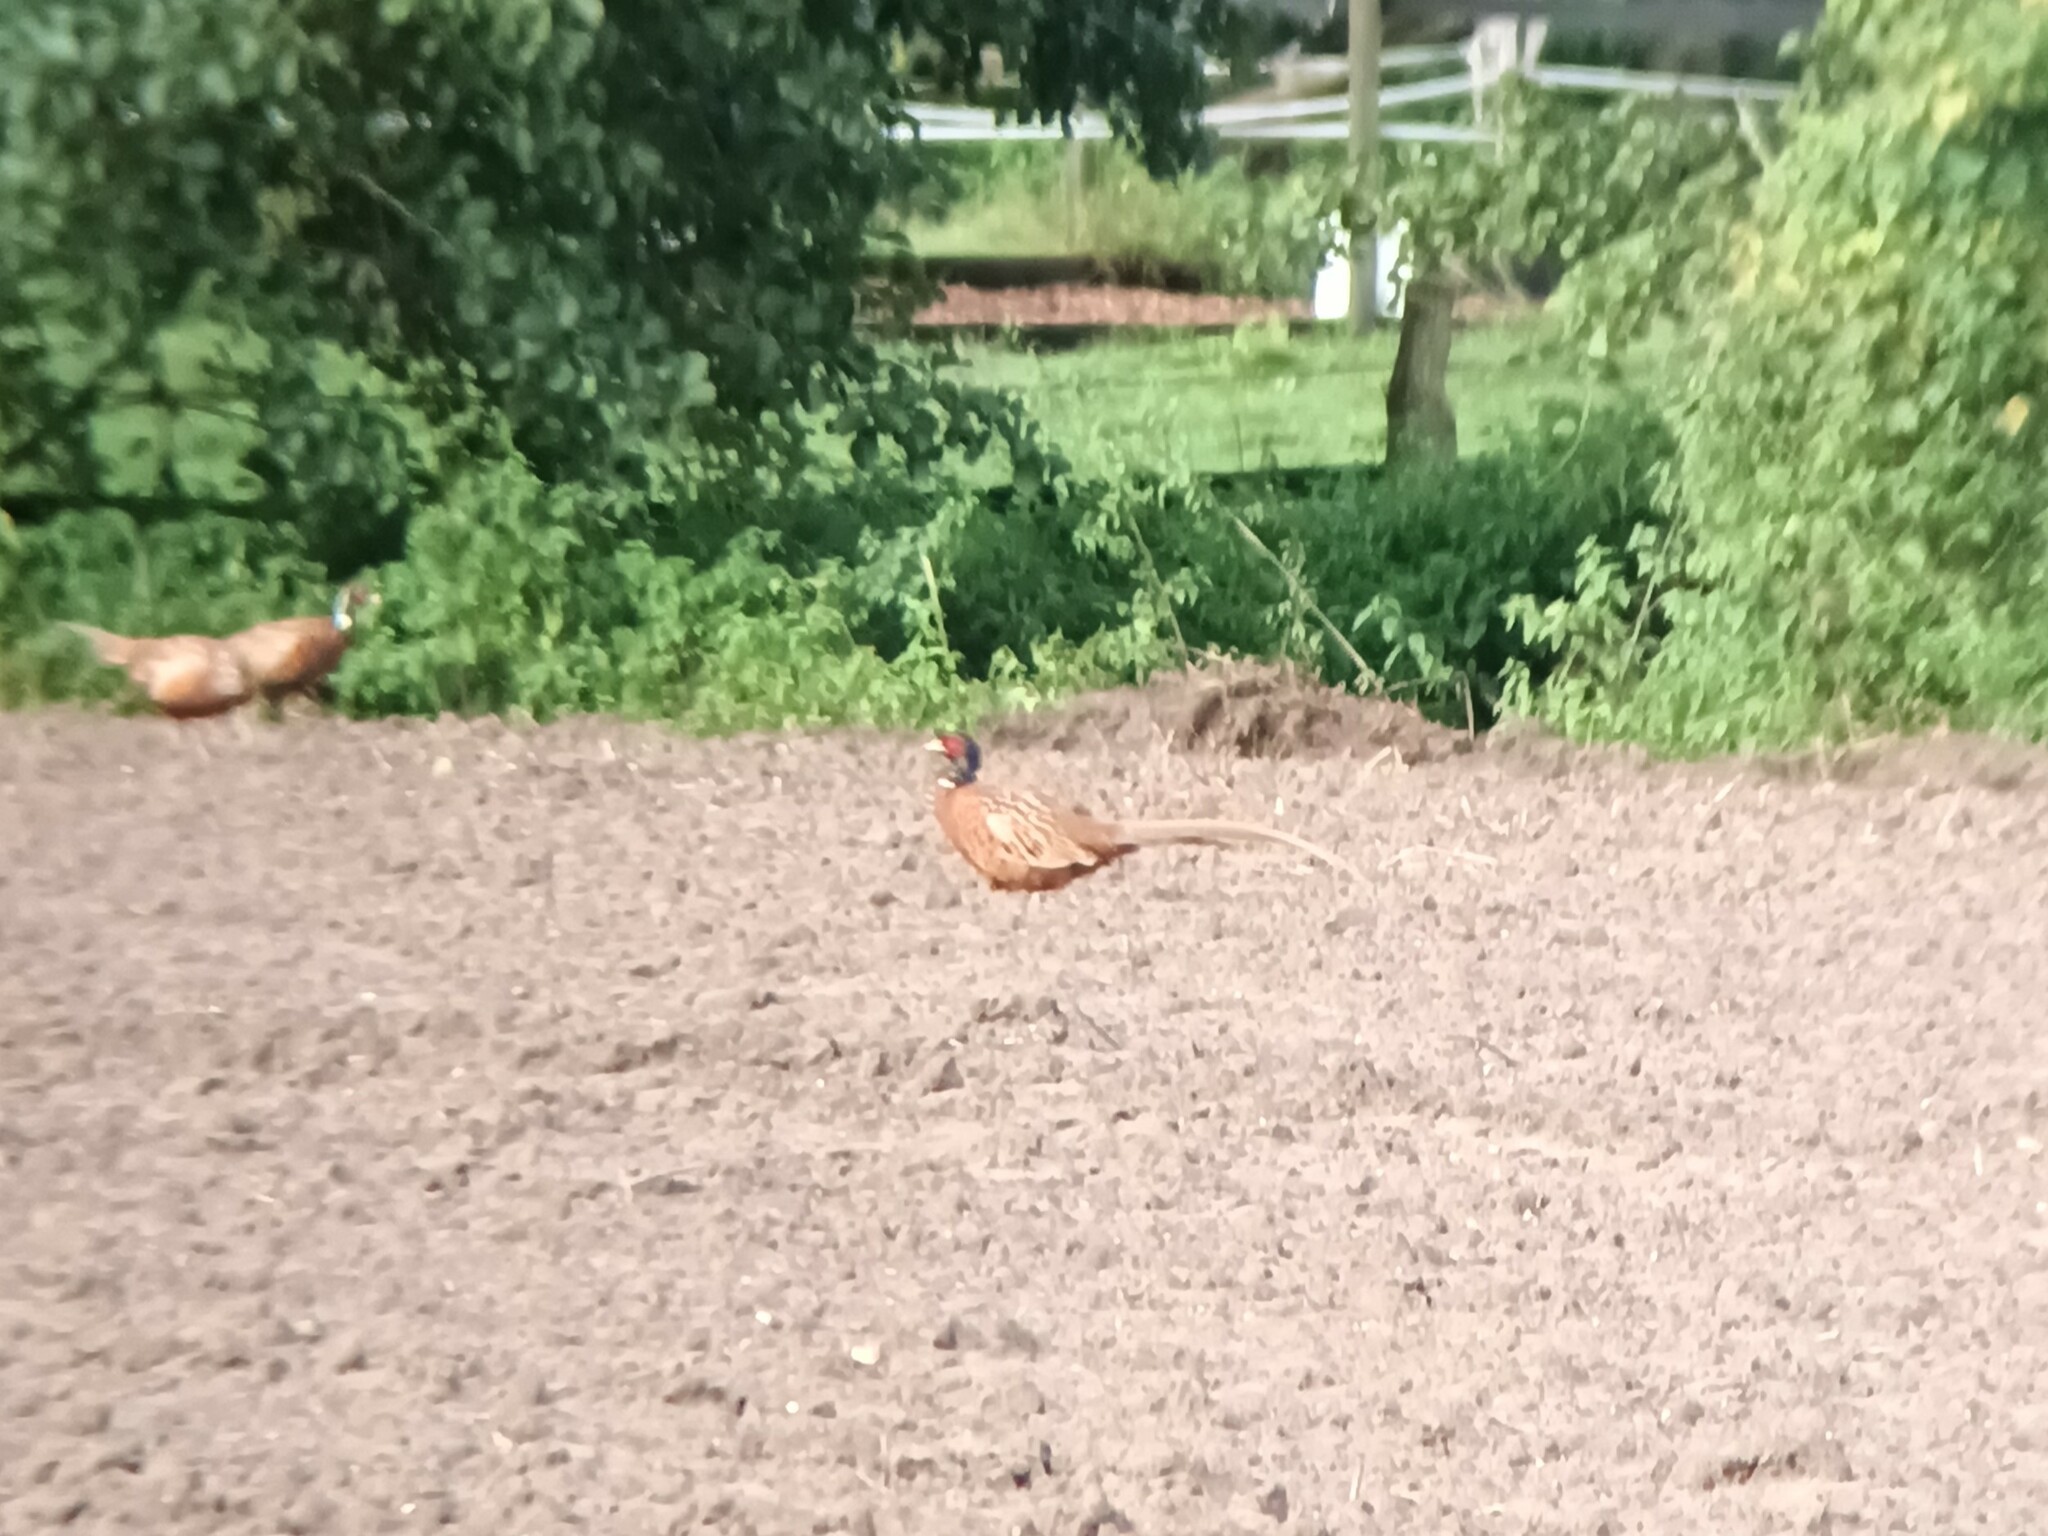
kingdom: Animalia
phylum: Chordata
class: Aves
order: Galliformes
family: Phasianidae
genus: Phasianus
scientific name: Phasianus colchicus
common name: Common pheasant
